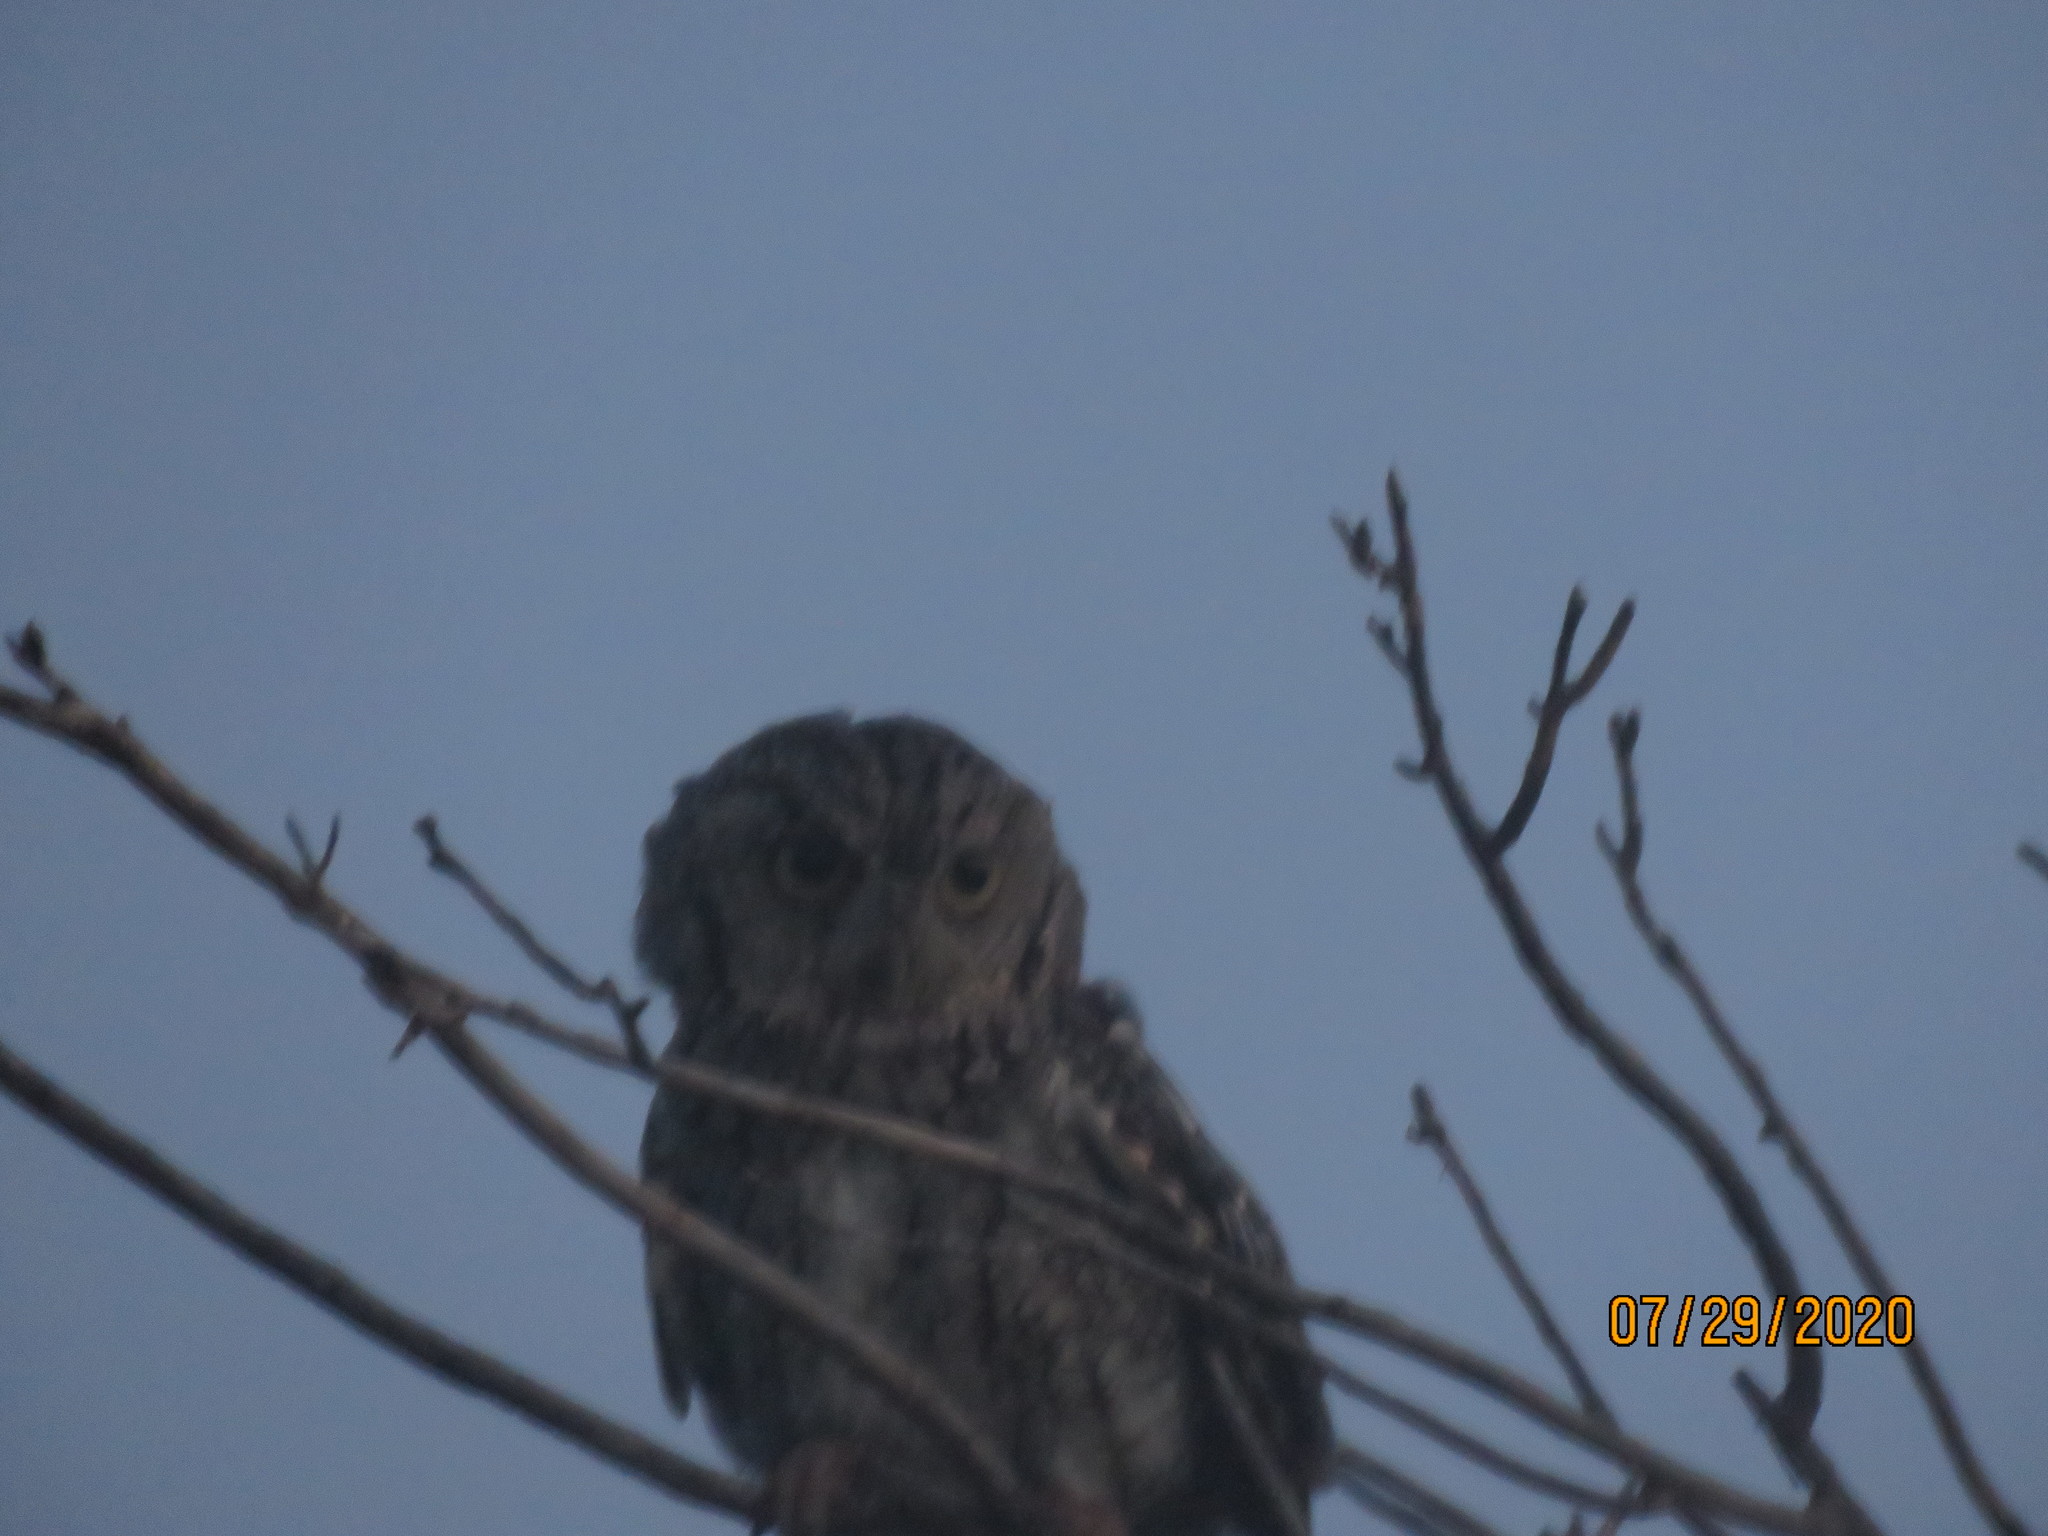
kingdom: Animalia
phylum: Chordata
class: Aves
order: Strigiformes
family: Strigidae
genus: Megascops
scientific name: Megascops asio
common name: Eastern screech-owl
